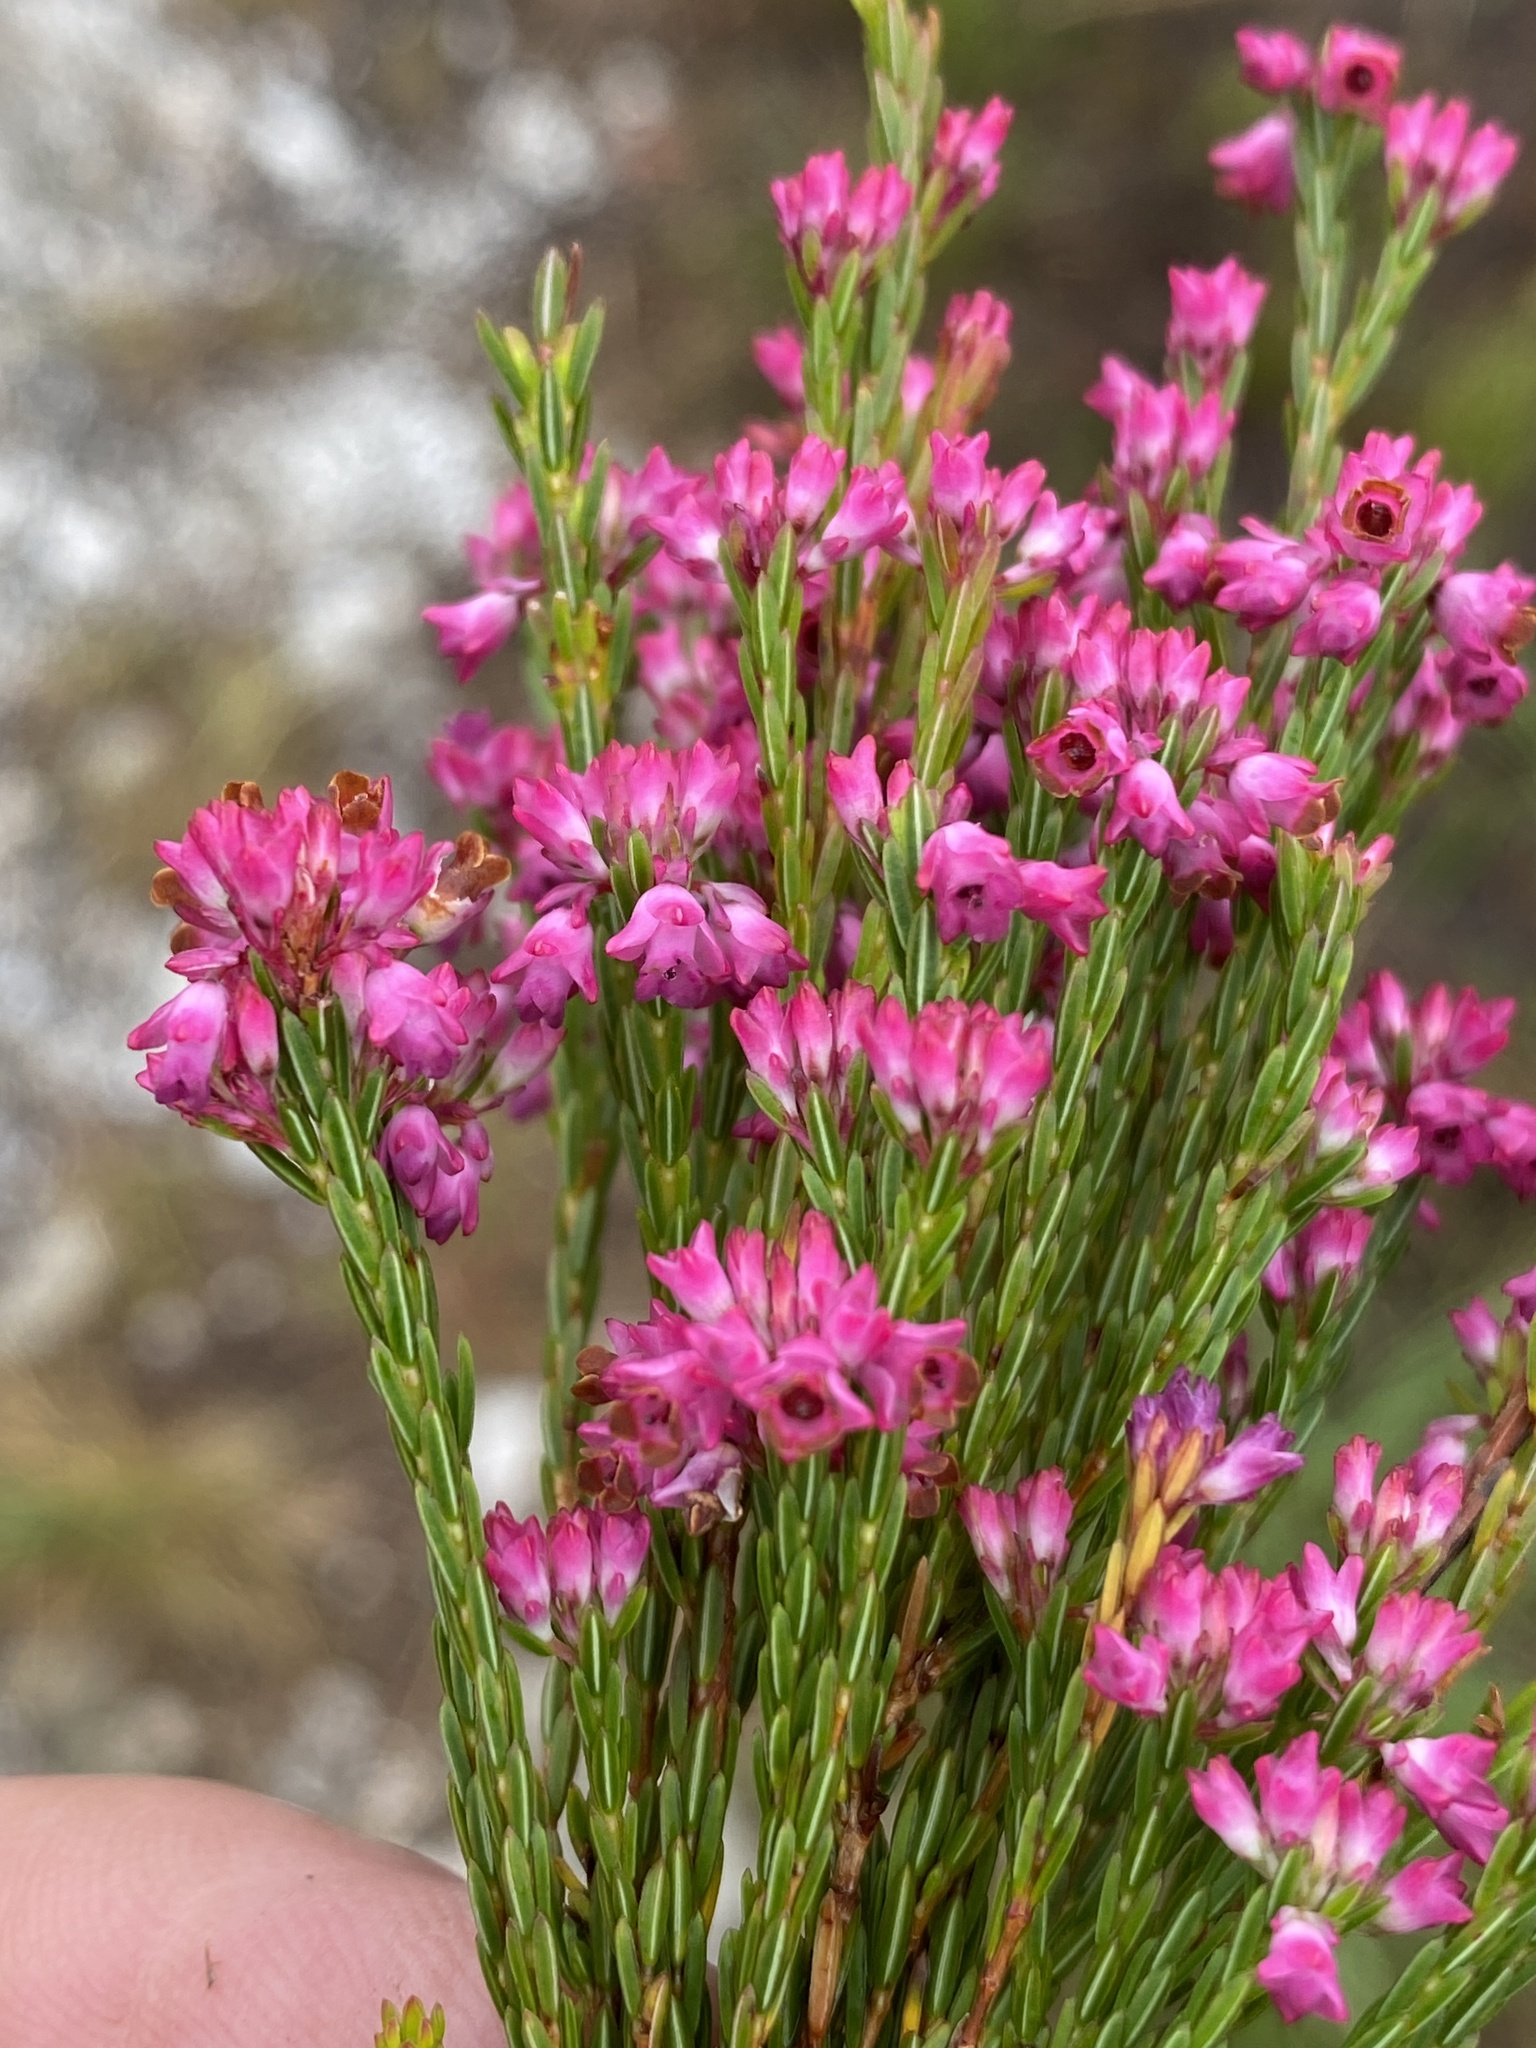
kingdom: Plantae
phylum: Tracheophyta
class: Magnoliopsida
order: Ericales
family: Ericaceae
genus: Erica
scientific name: Erica corifolia
